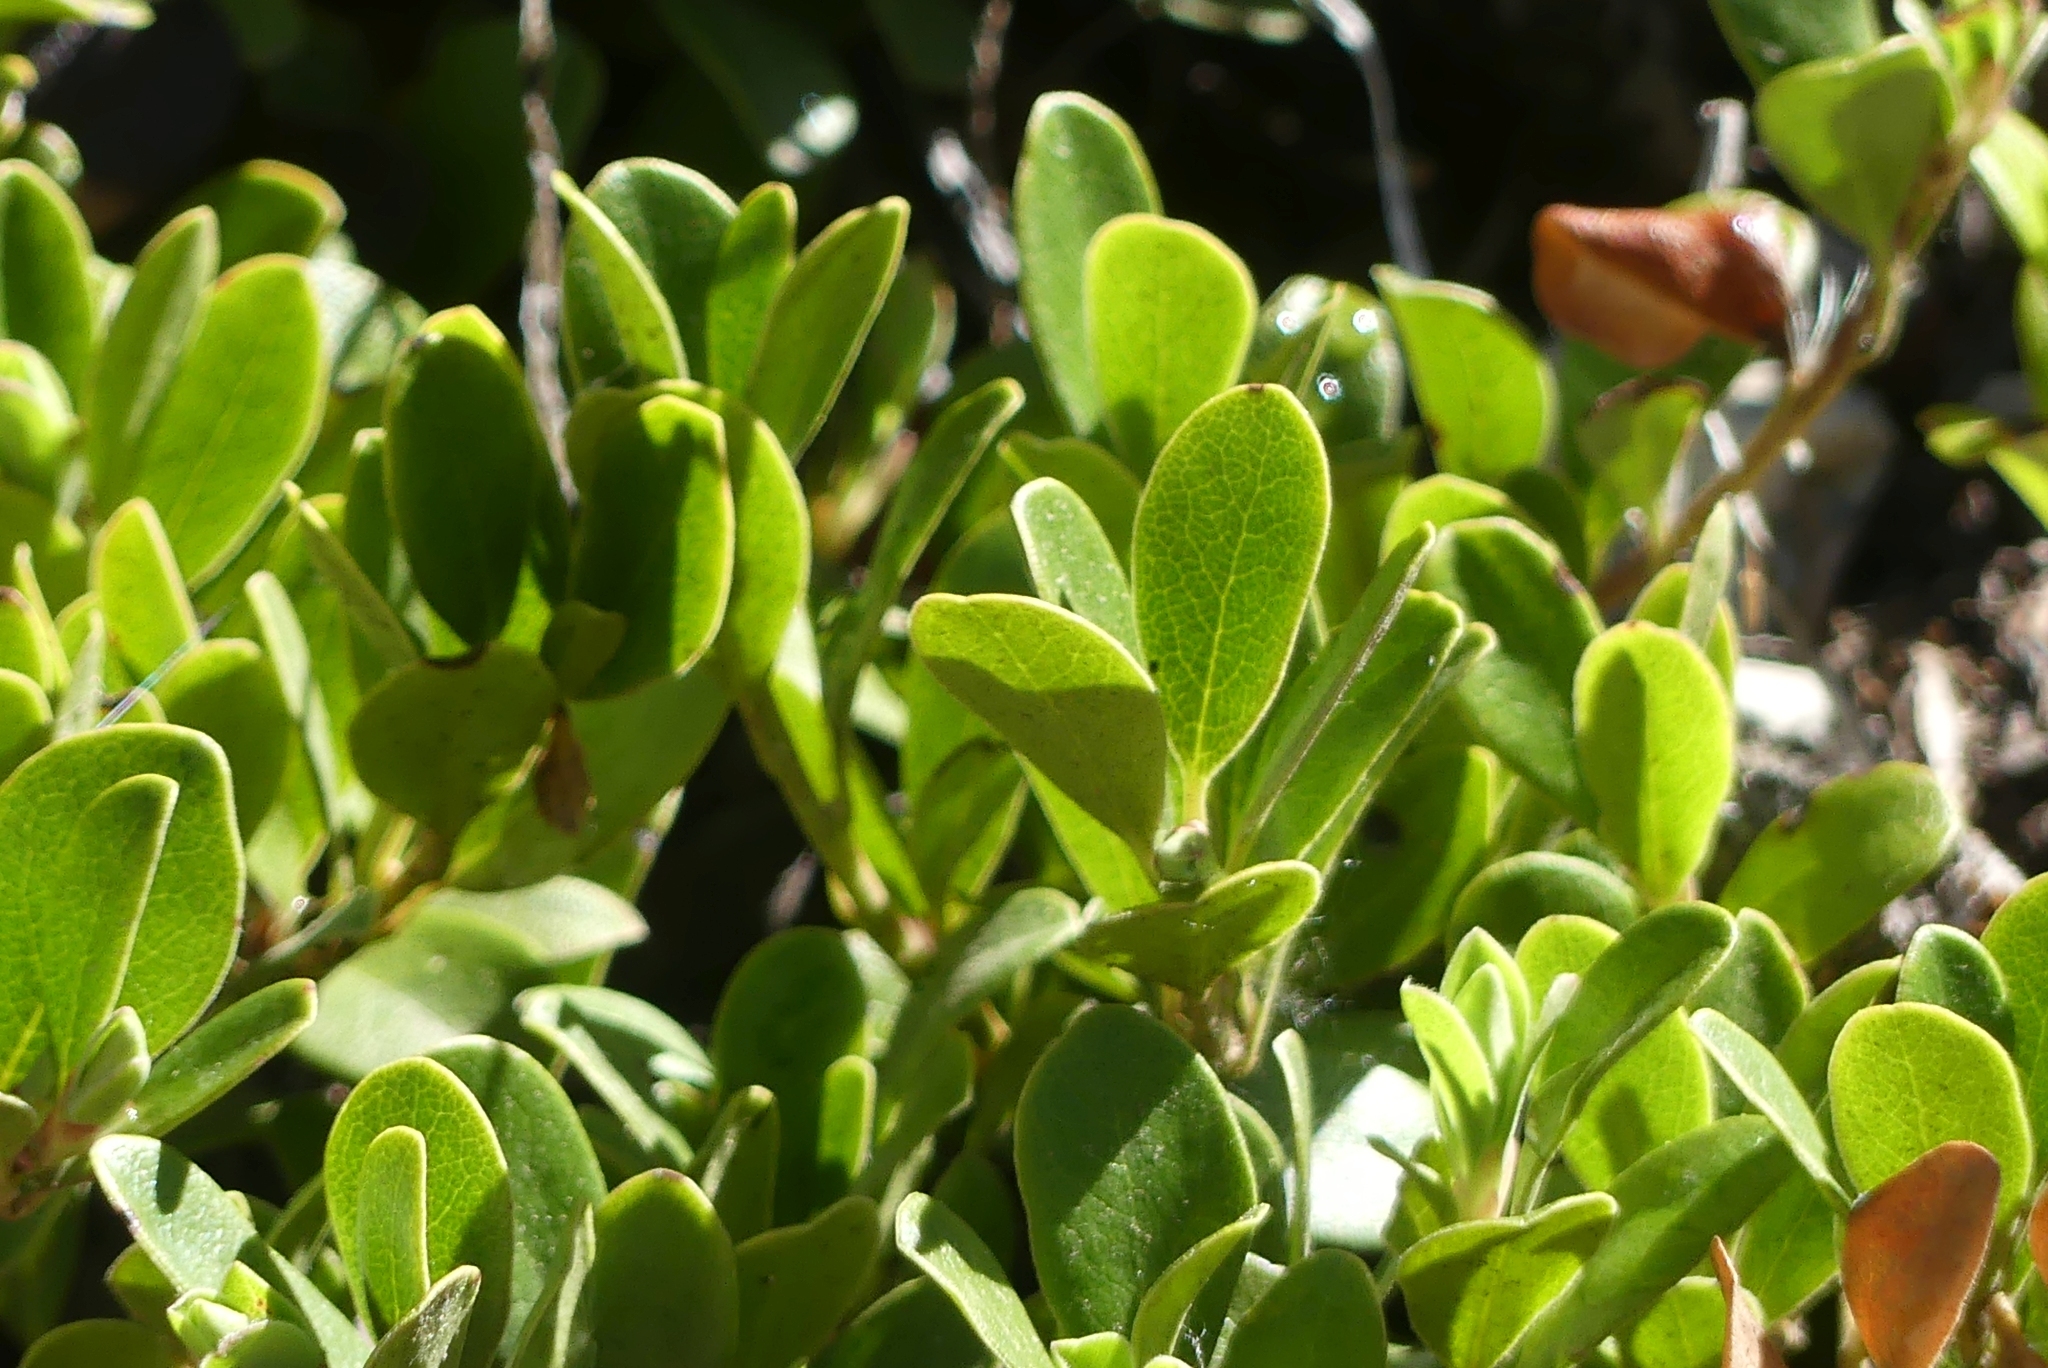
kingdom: Plantae
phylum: Tracheophyta
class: Magnoliopsida
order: Ericales
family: Ericaceae
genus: Arctostaphylos
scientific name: Arctostaphylos uva-ursi
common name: Bearberry
